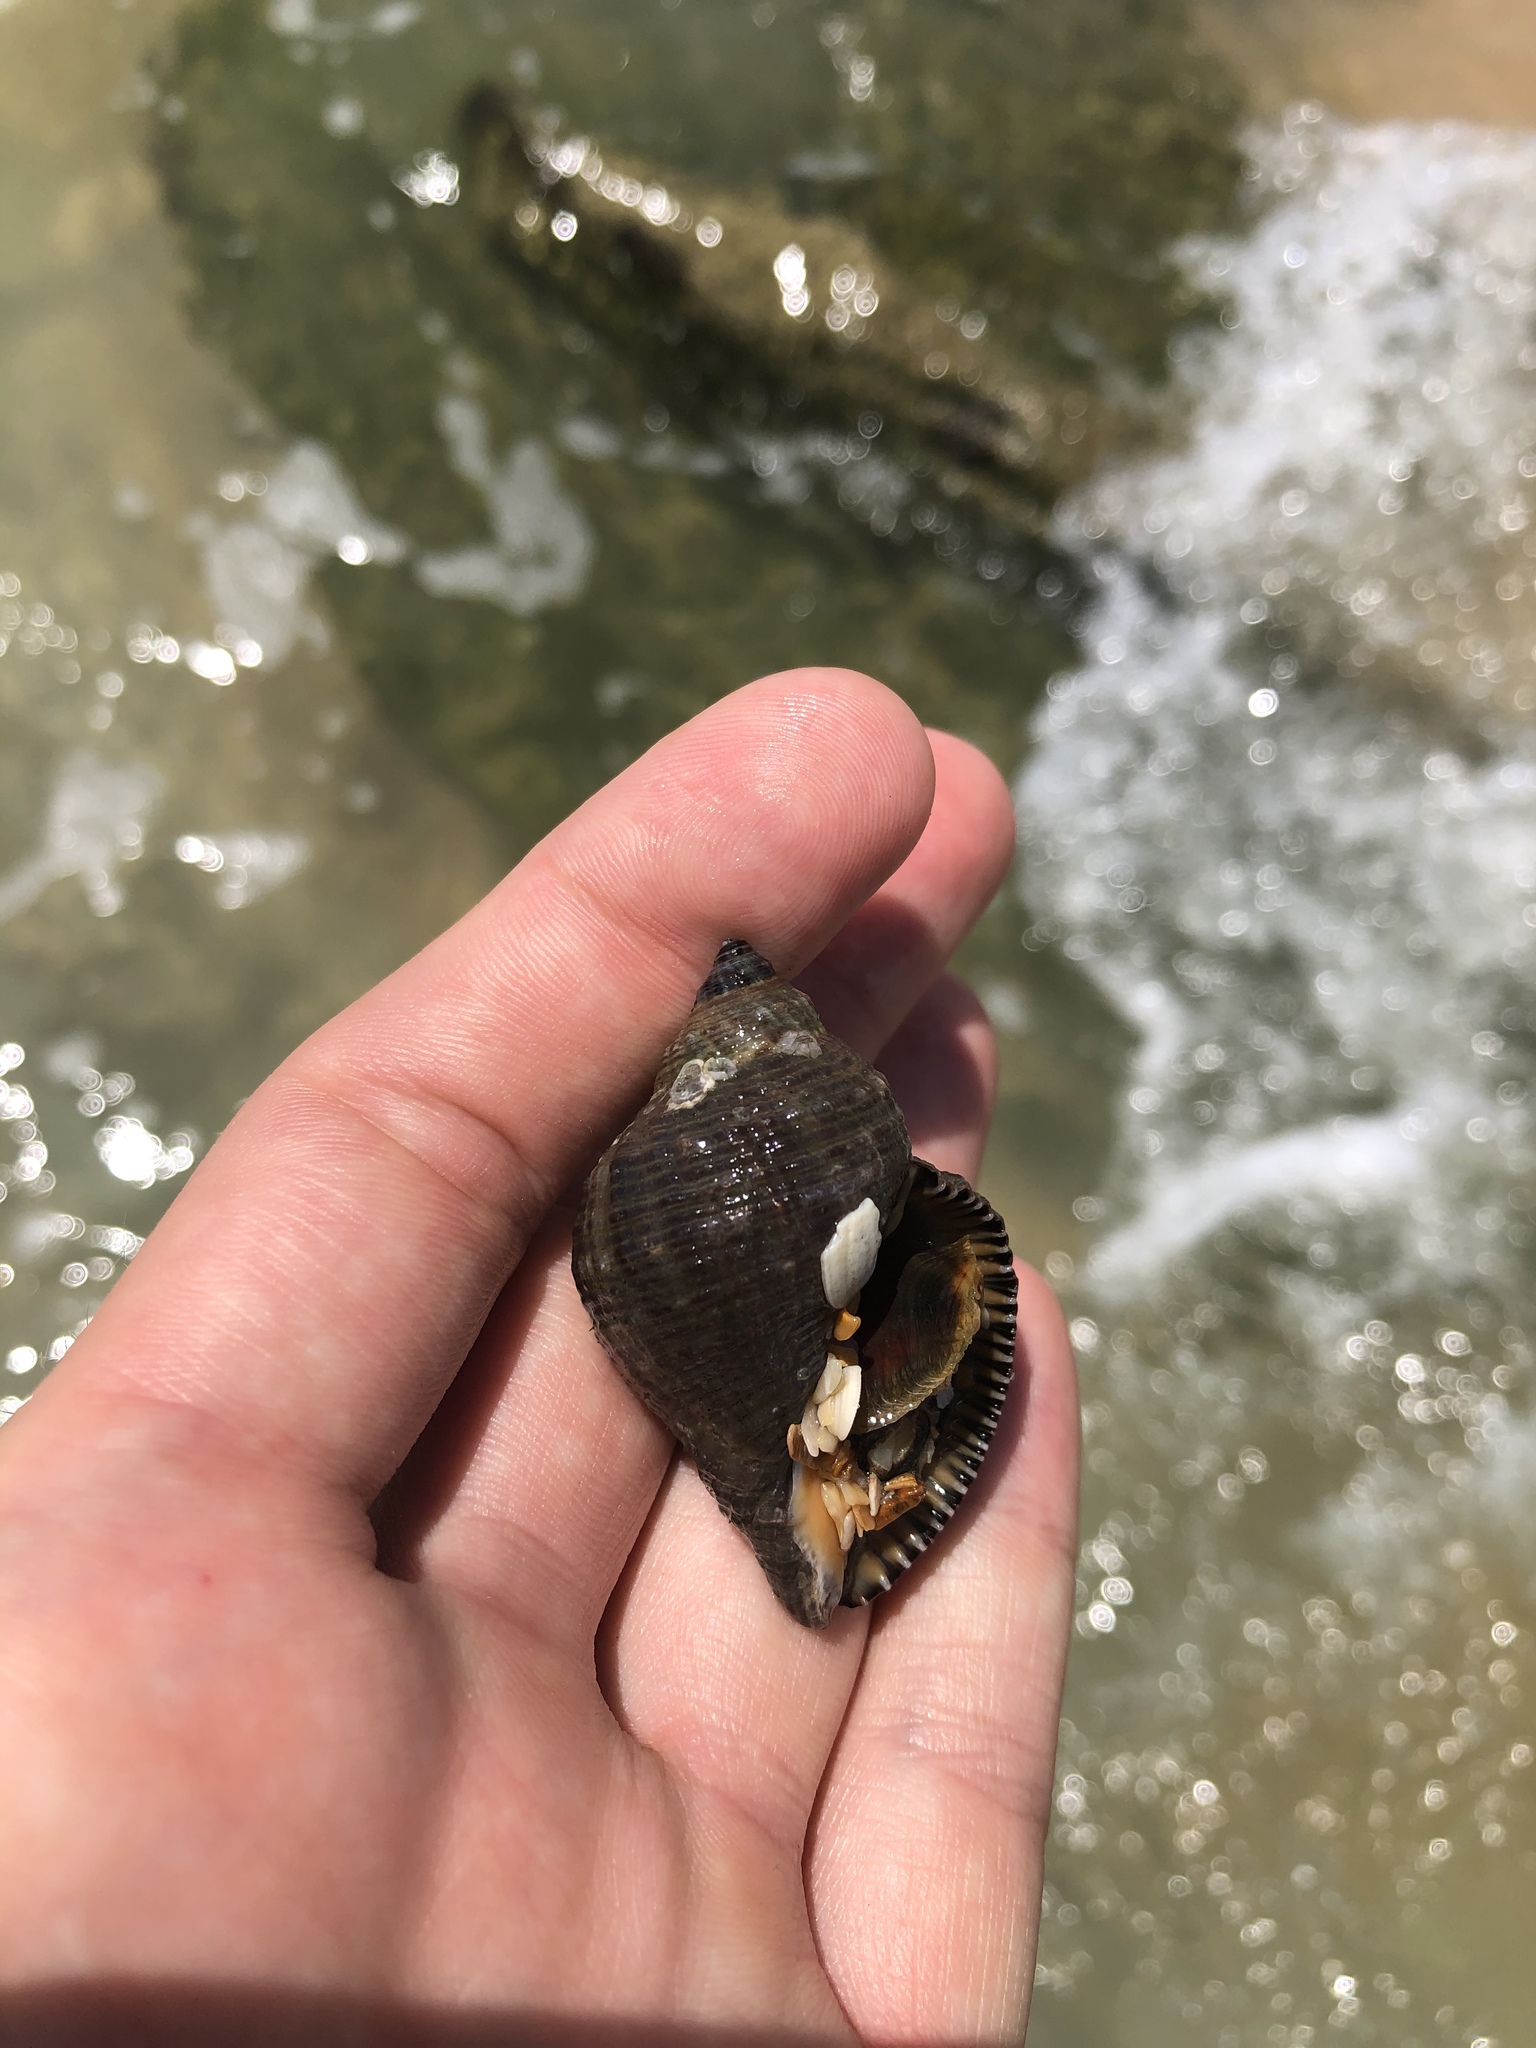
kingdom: Animalia
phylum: Mollusca
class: Gastropoda
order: Neogastropoda
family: Muricidae
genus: Stramonita
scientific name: Stramonita floridana
